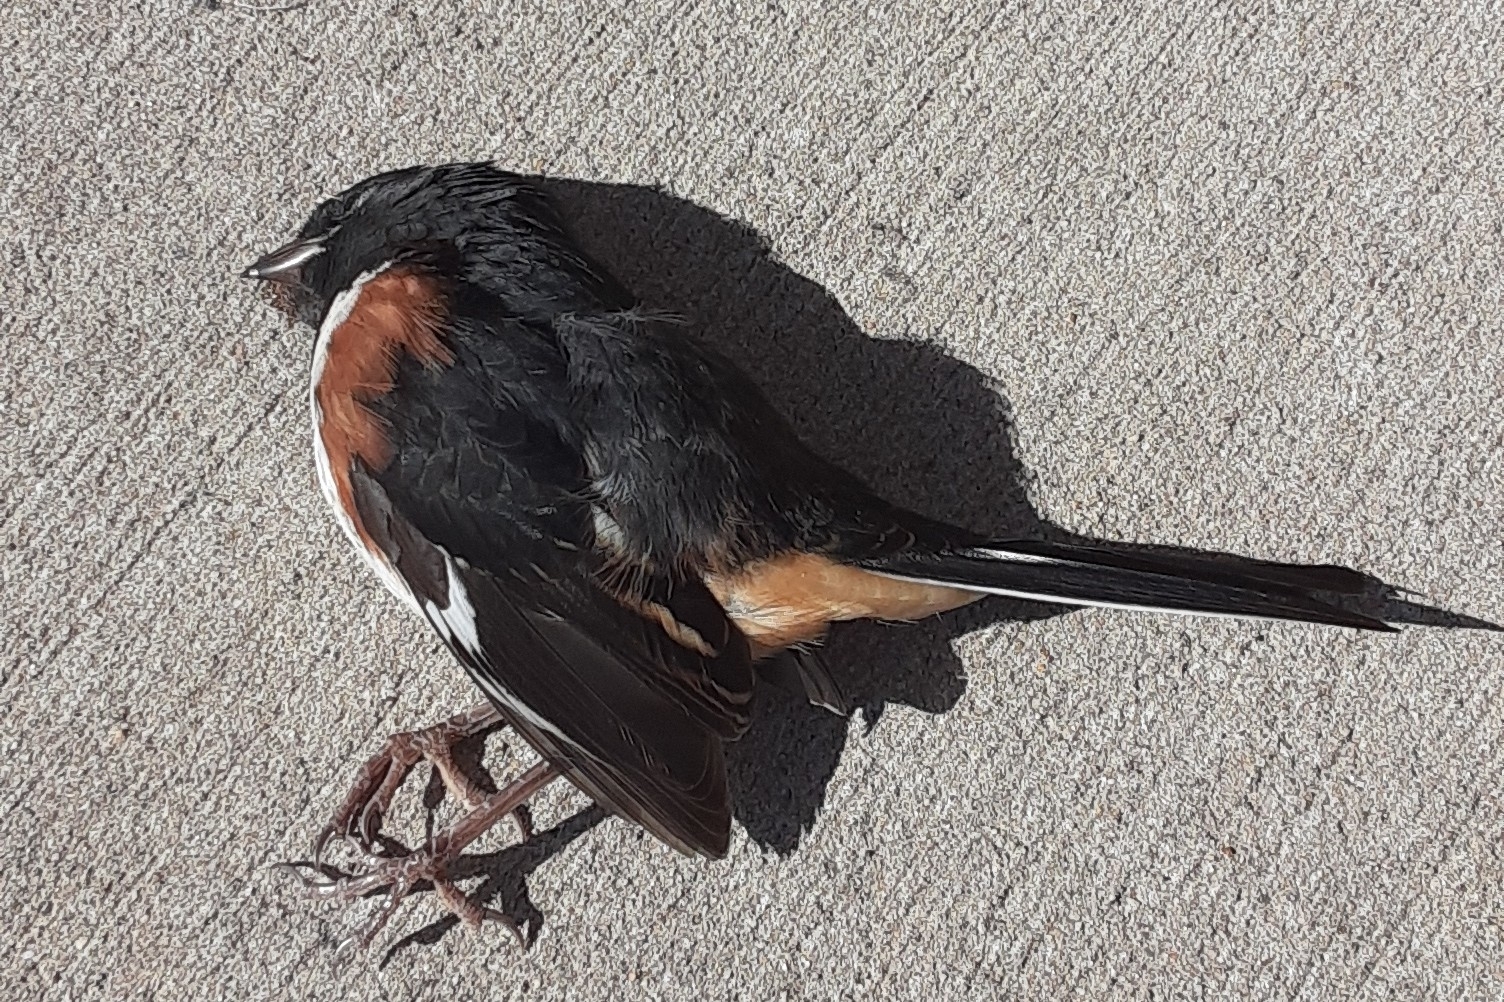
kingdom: Animalia
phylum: Chordata
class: Aves
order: Passeriformes
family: Passerellidae
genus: Pipilo
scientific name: Pipilo erythrophthalmus
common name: Eastern towhee
